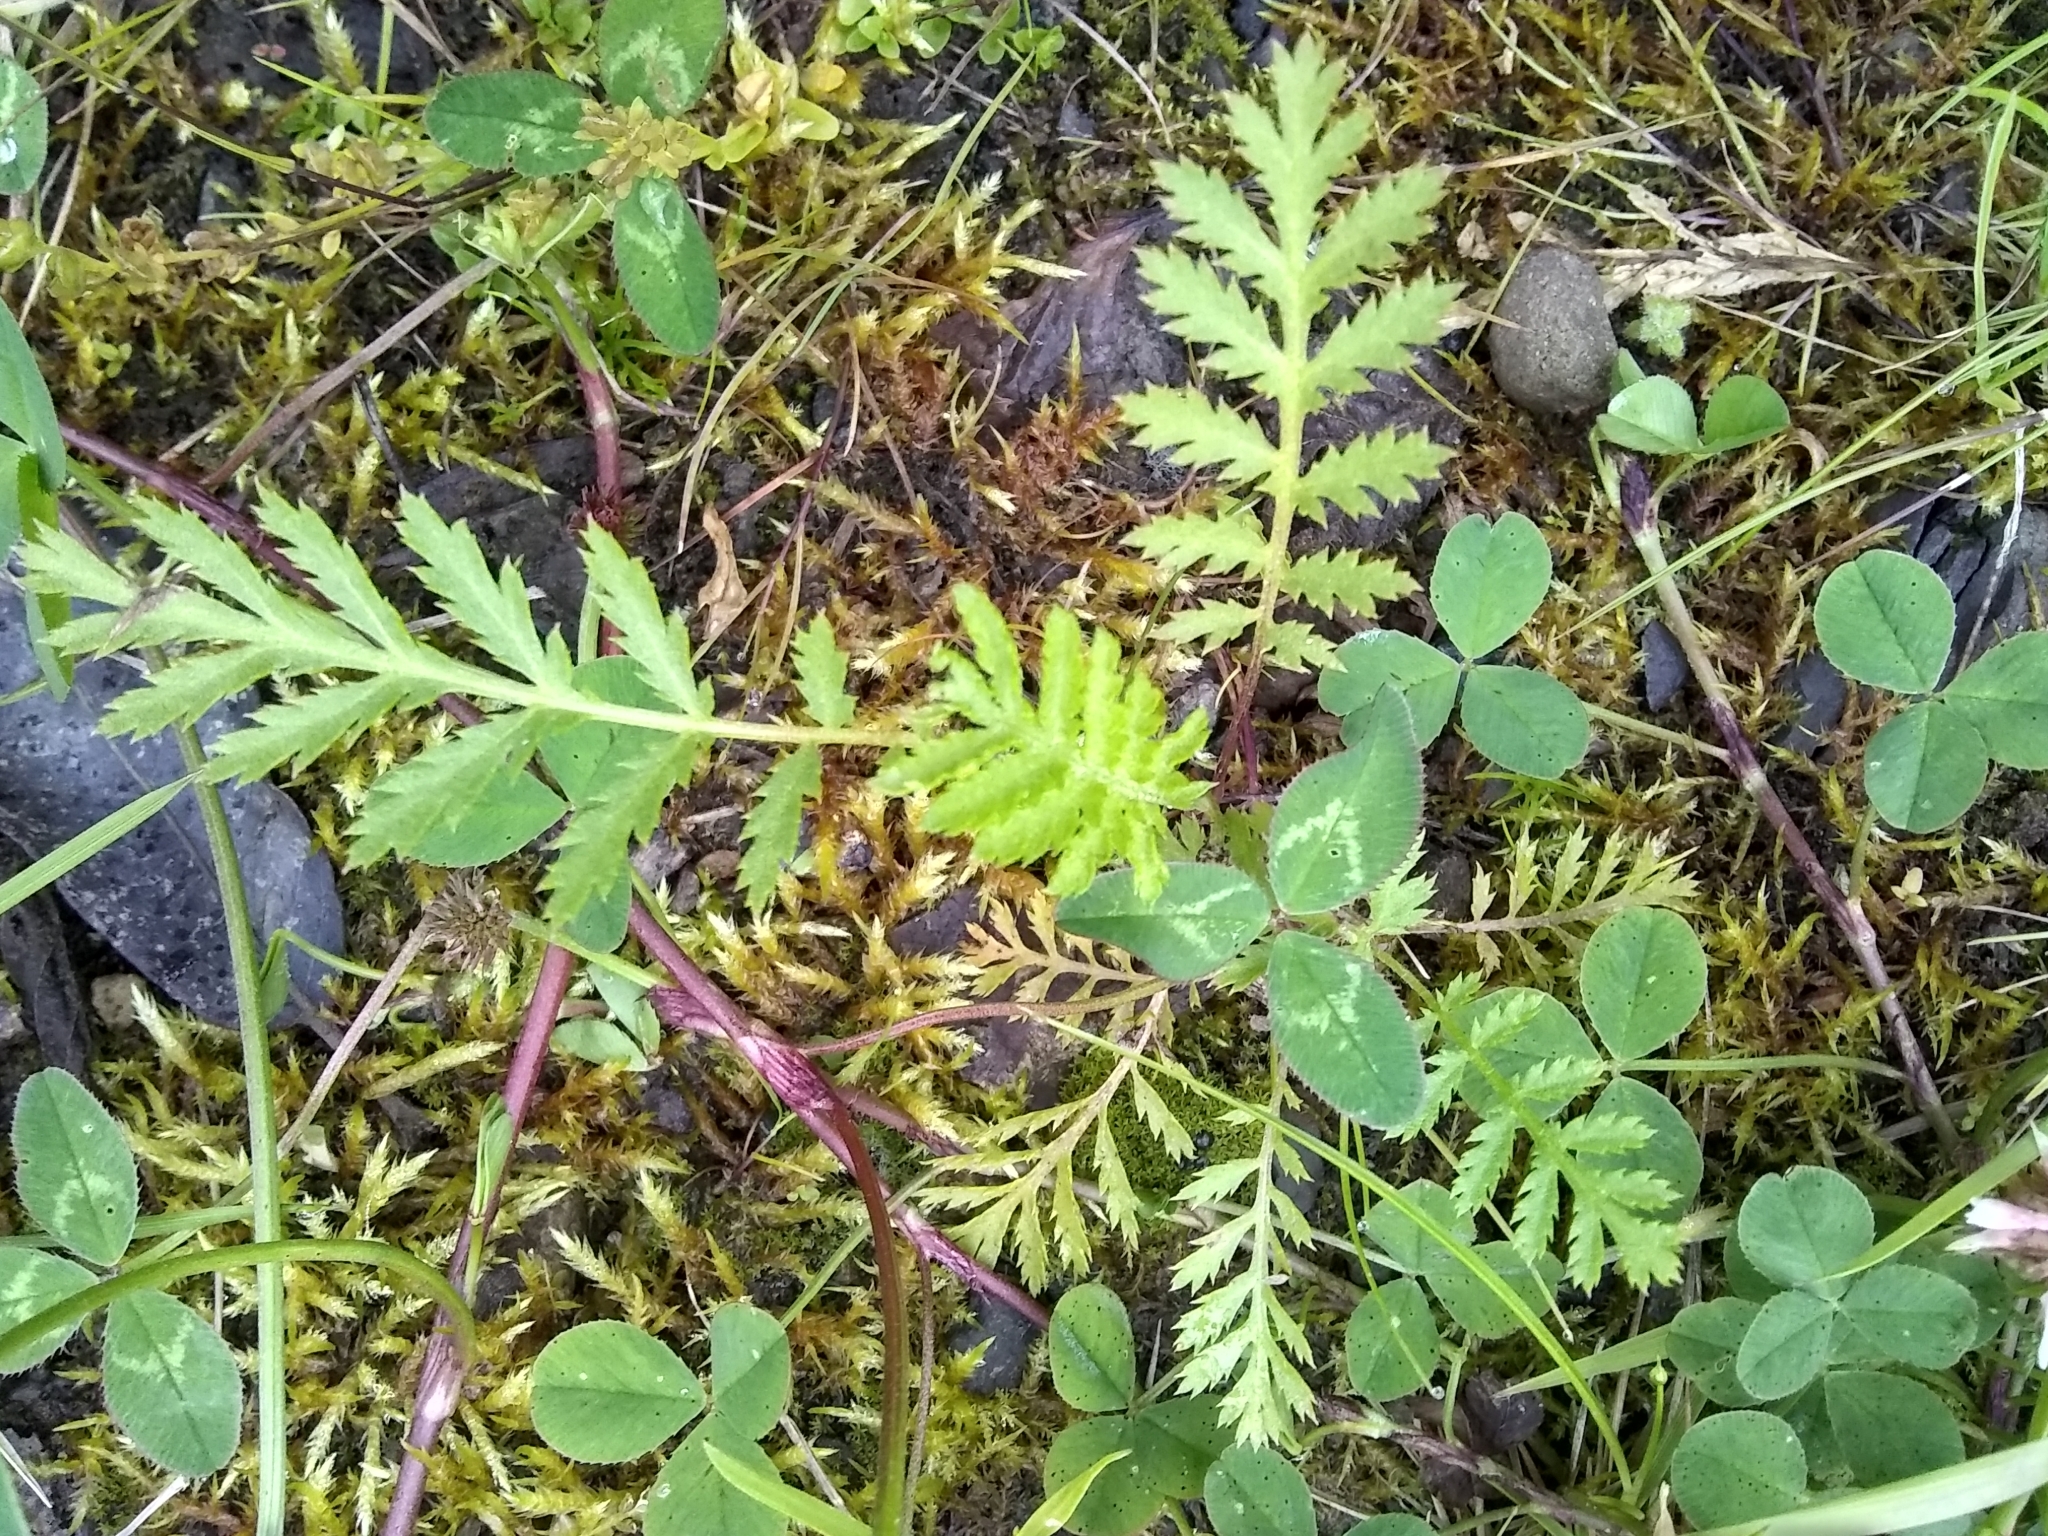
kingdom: Plantae
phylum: Tracheophyta
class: Magnoliopsida
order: Asterales
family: Asteraceae
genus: Tanacetum
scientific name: Tanacetum vulgare
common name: Common tansy
